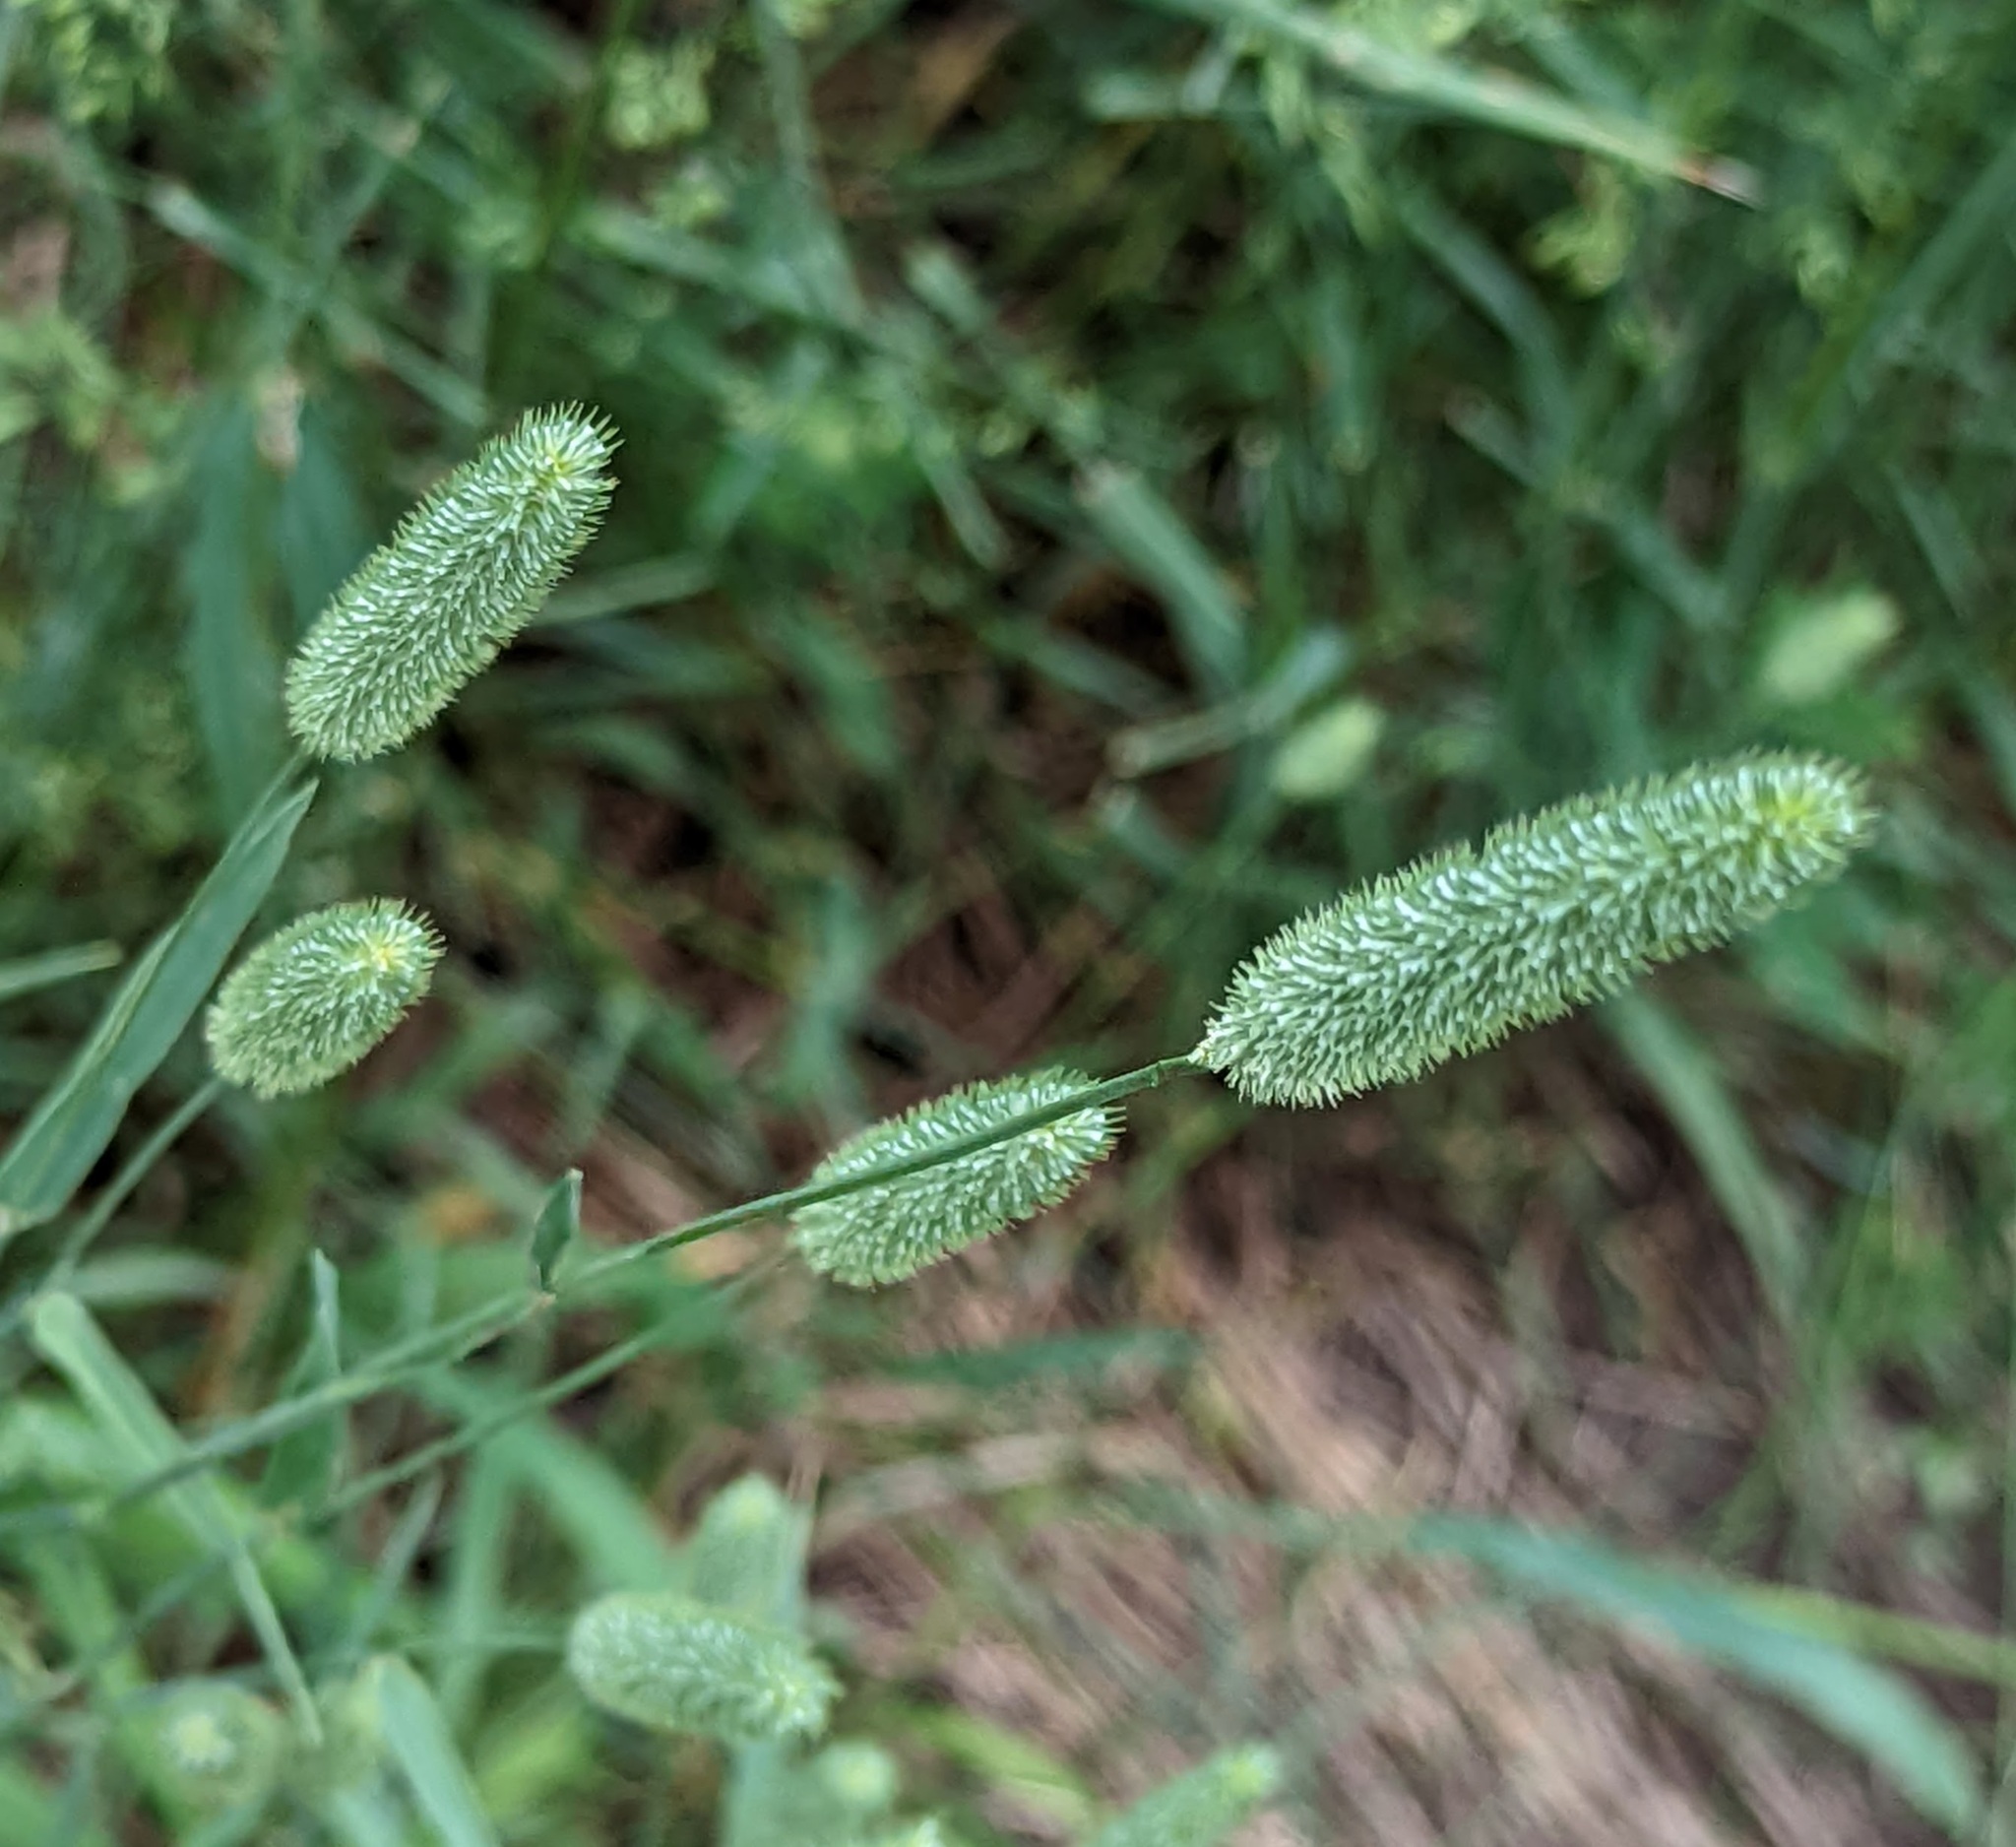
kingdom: Plantae
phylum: Tracheophyta
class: Liliopsida
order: Poales
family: Poaceae
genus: Phleum
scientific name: Phleum pratense
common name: Timothy grass
